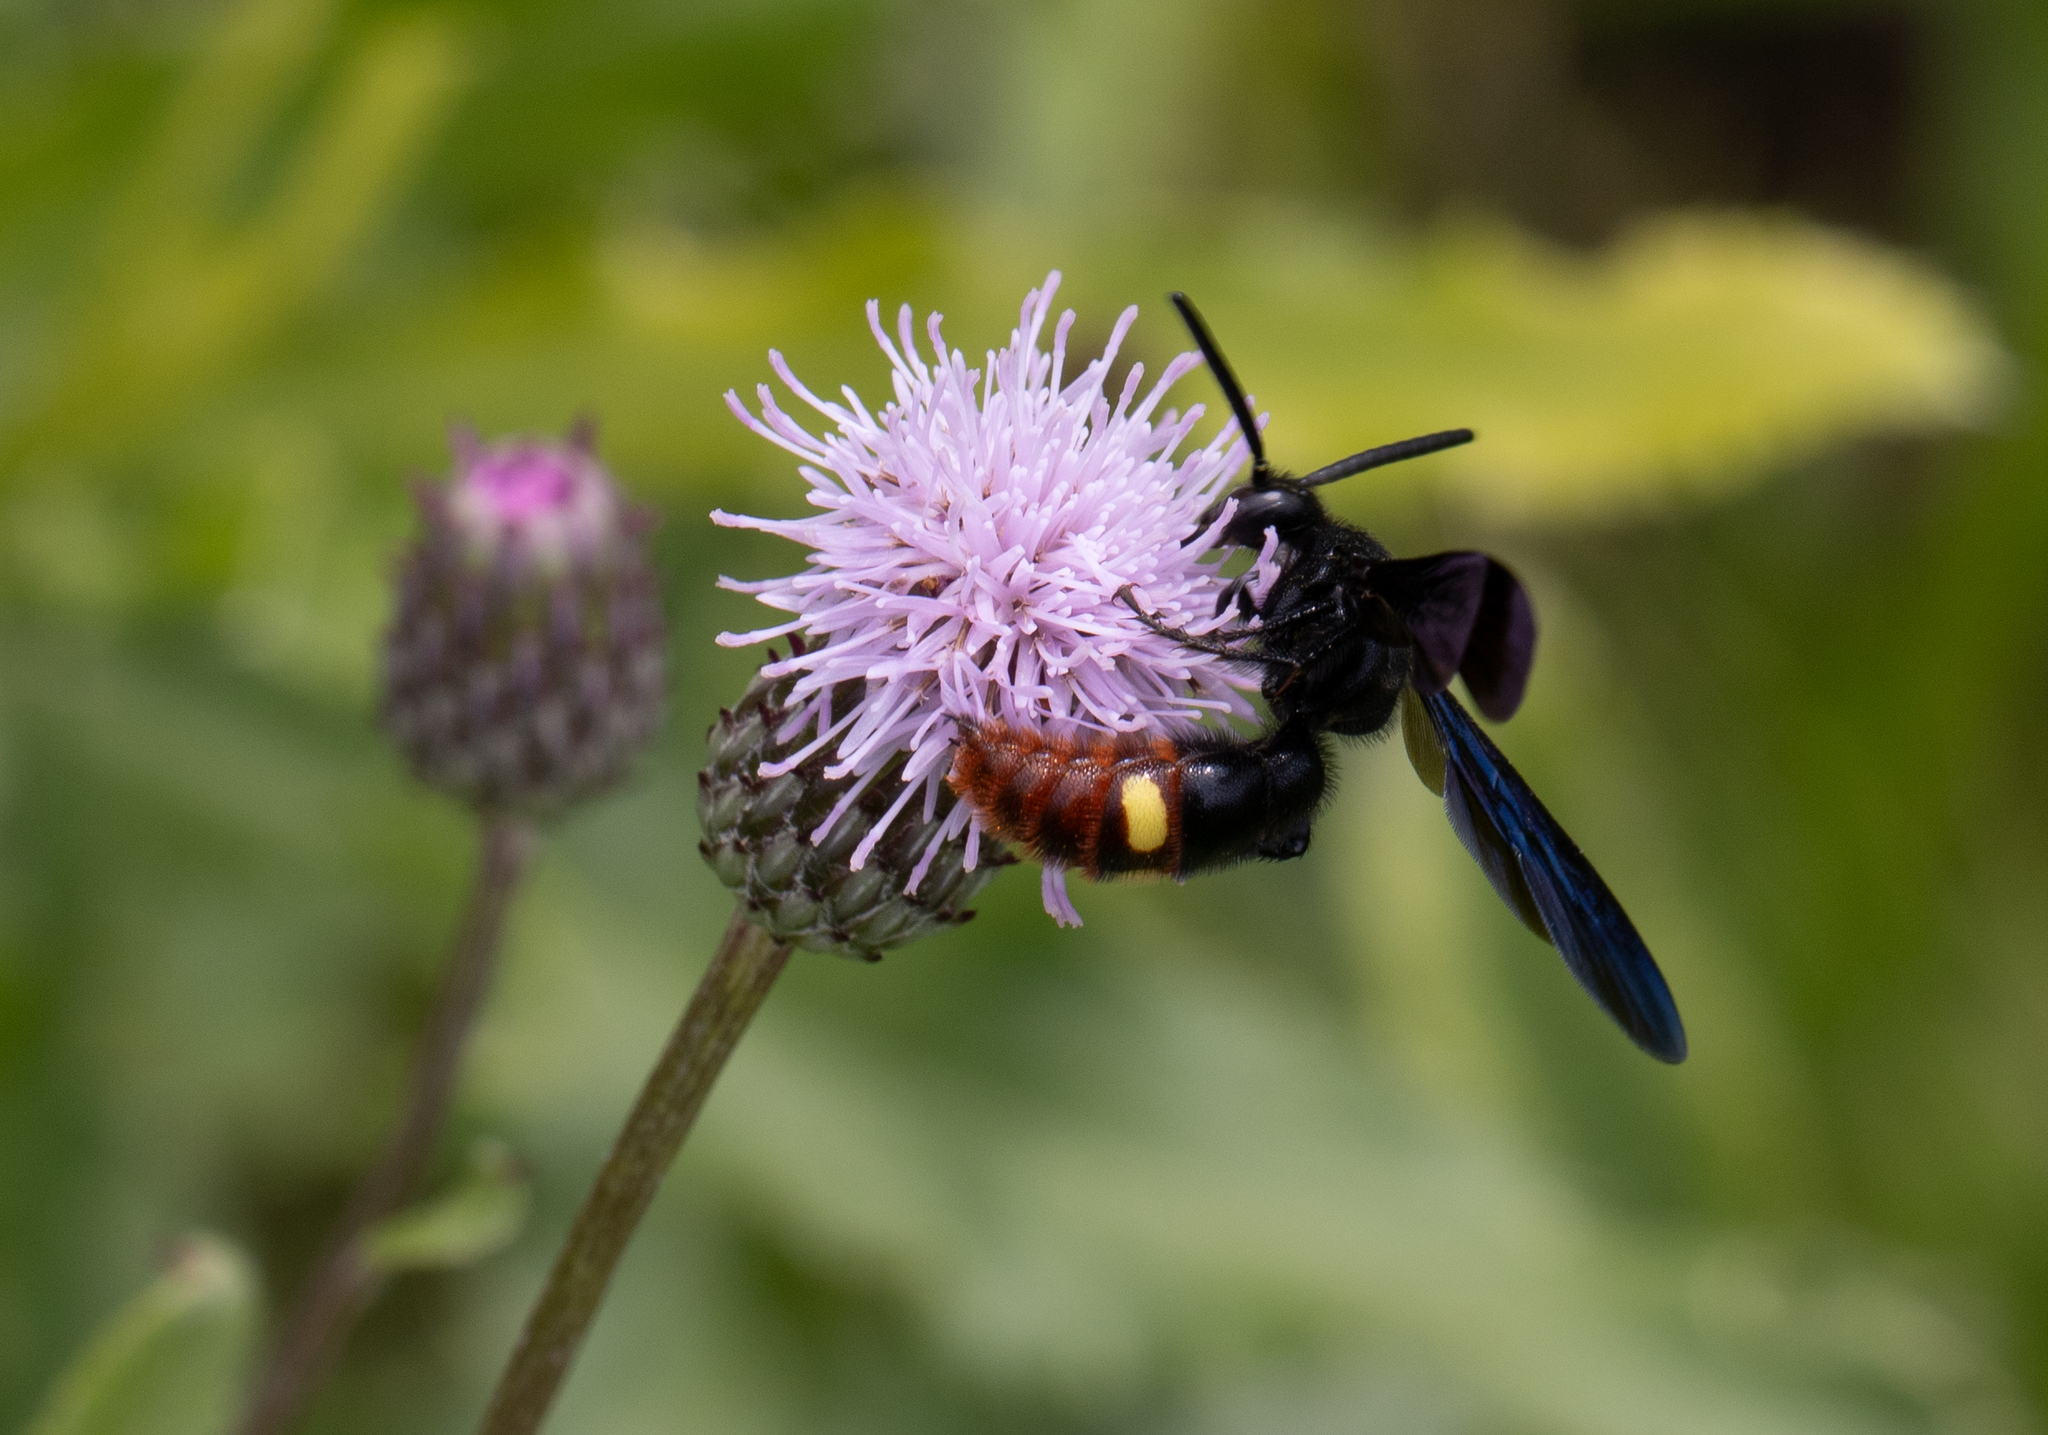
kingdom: Animalia
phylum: Arthropoda
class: Insecta
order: Hymenoptera
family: Scoliidae
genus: Scolia
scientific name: Scolia dubia
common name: Blue-winged scoliid wasp
